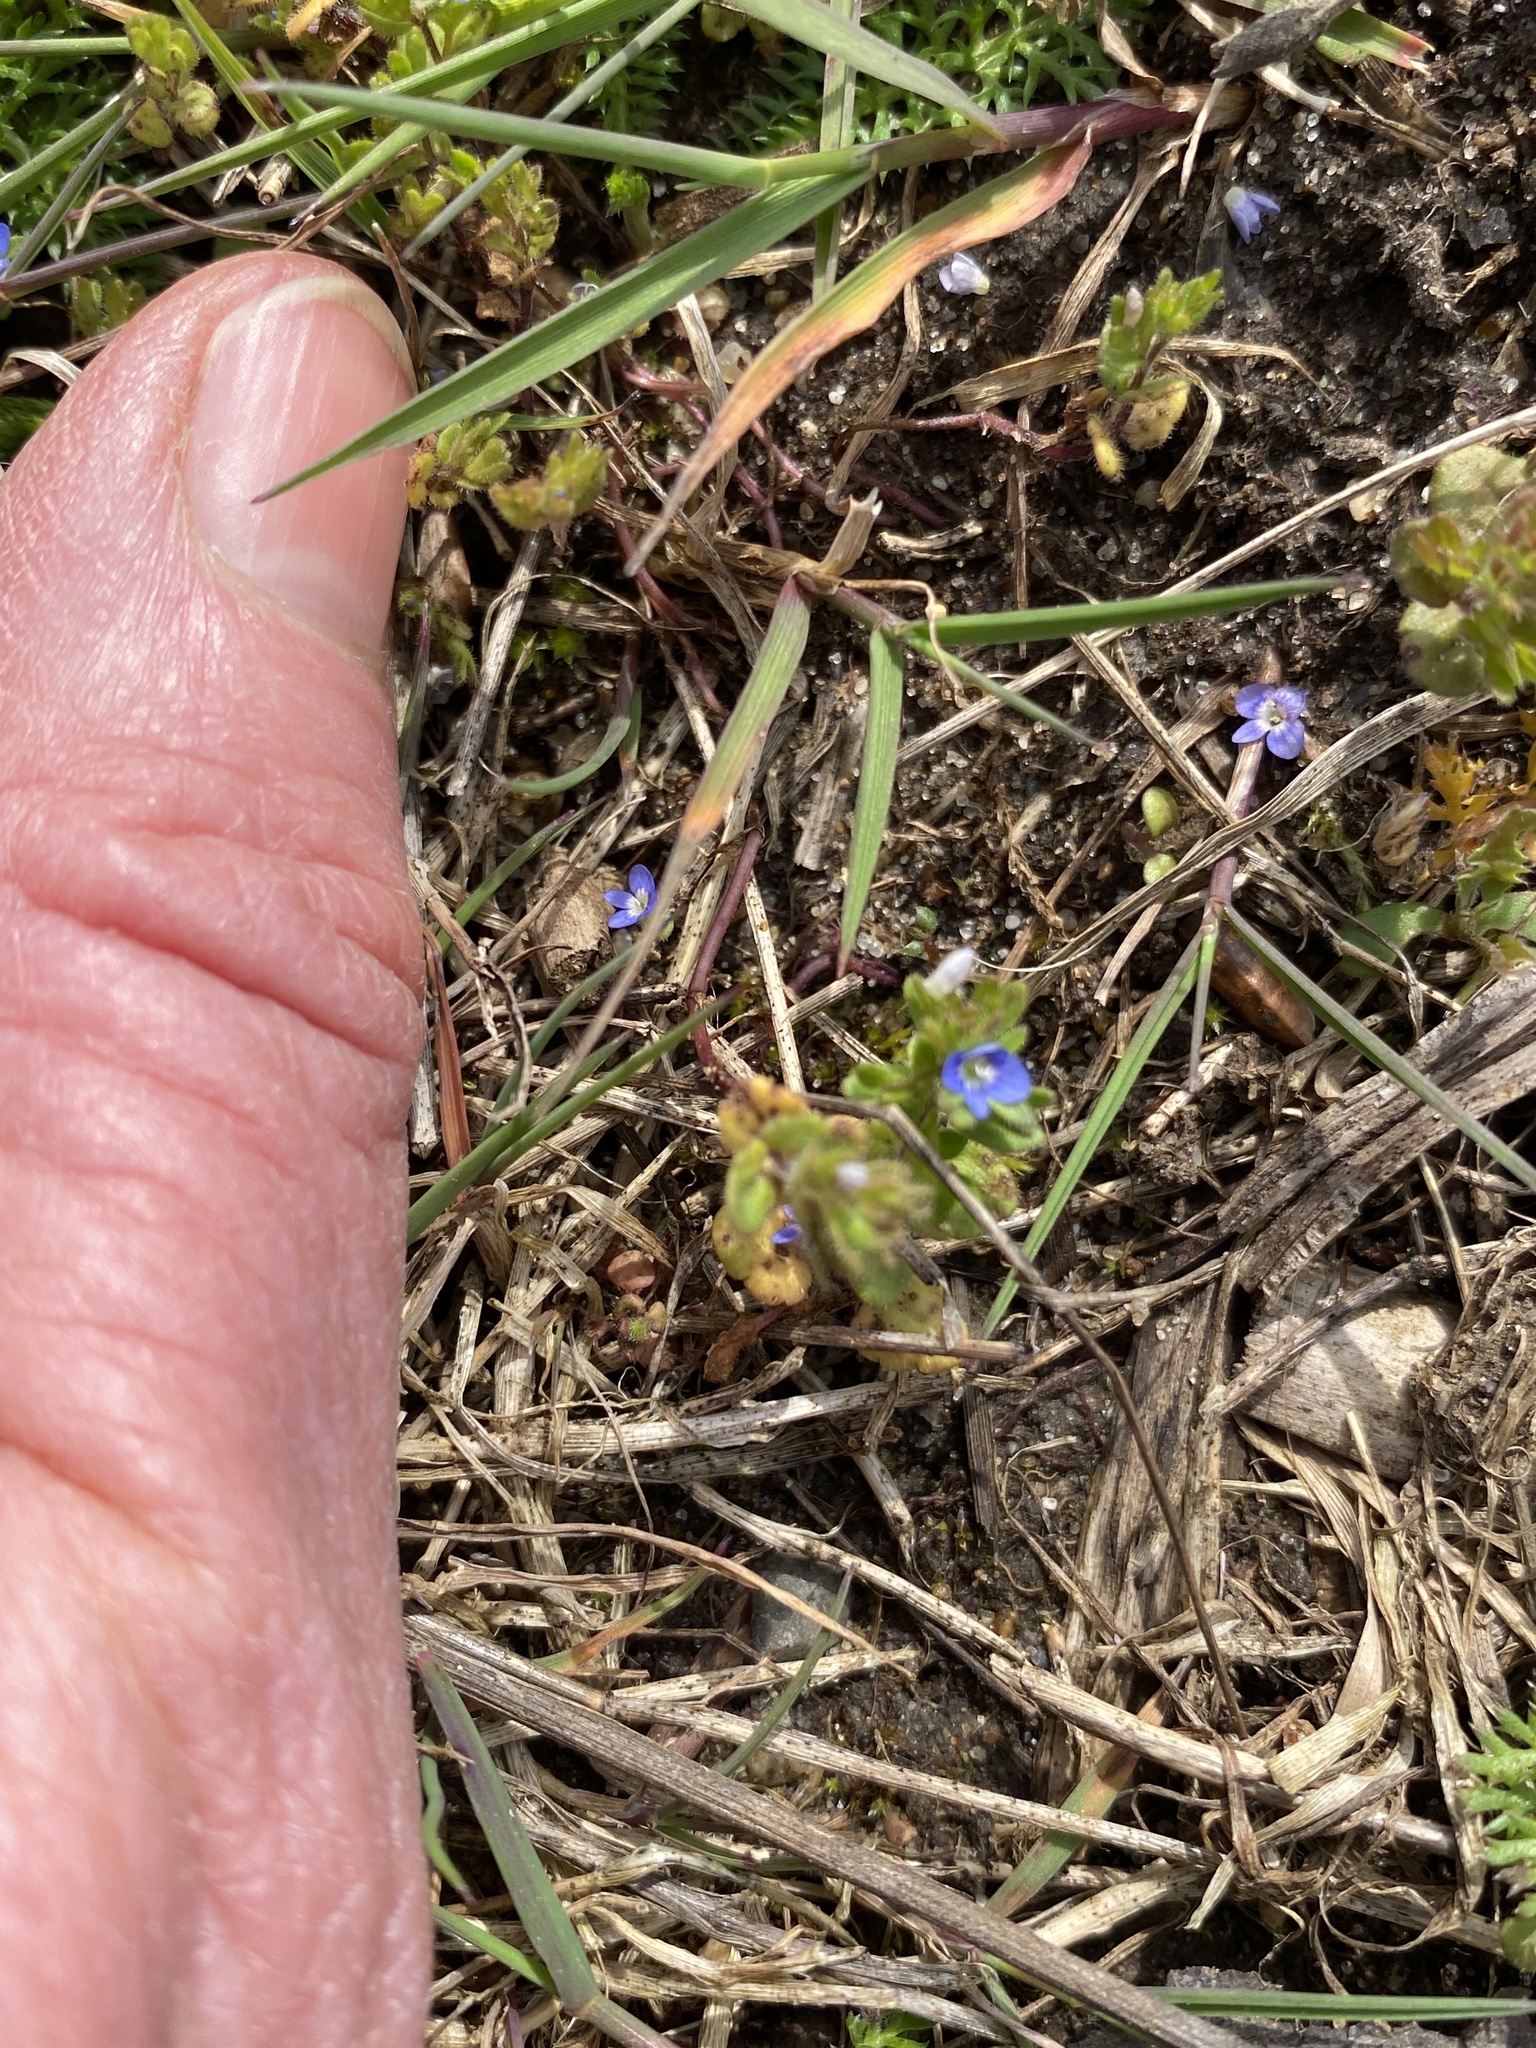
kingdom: Plantae
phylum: Tracheophyta
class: Magnoliopsida
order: Lamiales
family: Plantaginaceae
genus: Veronica
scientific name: Veronica arvensis
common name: Corn speedwell
